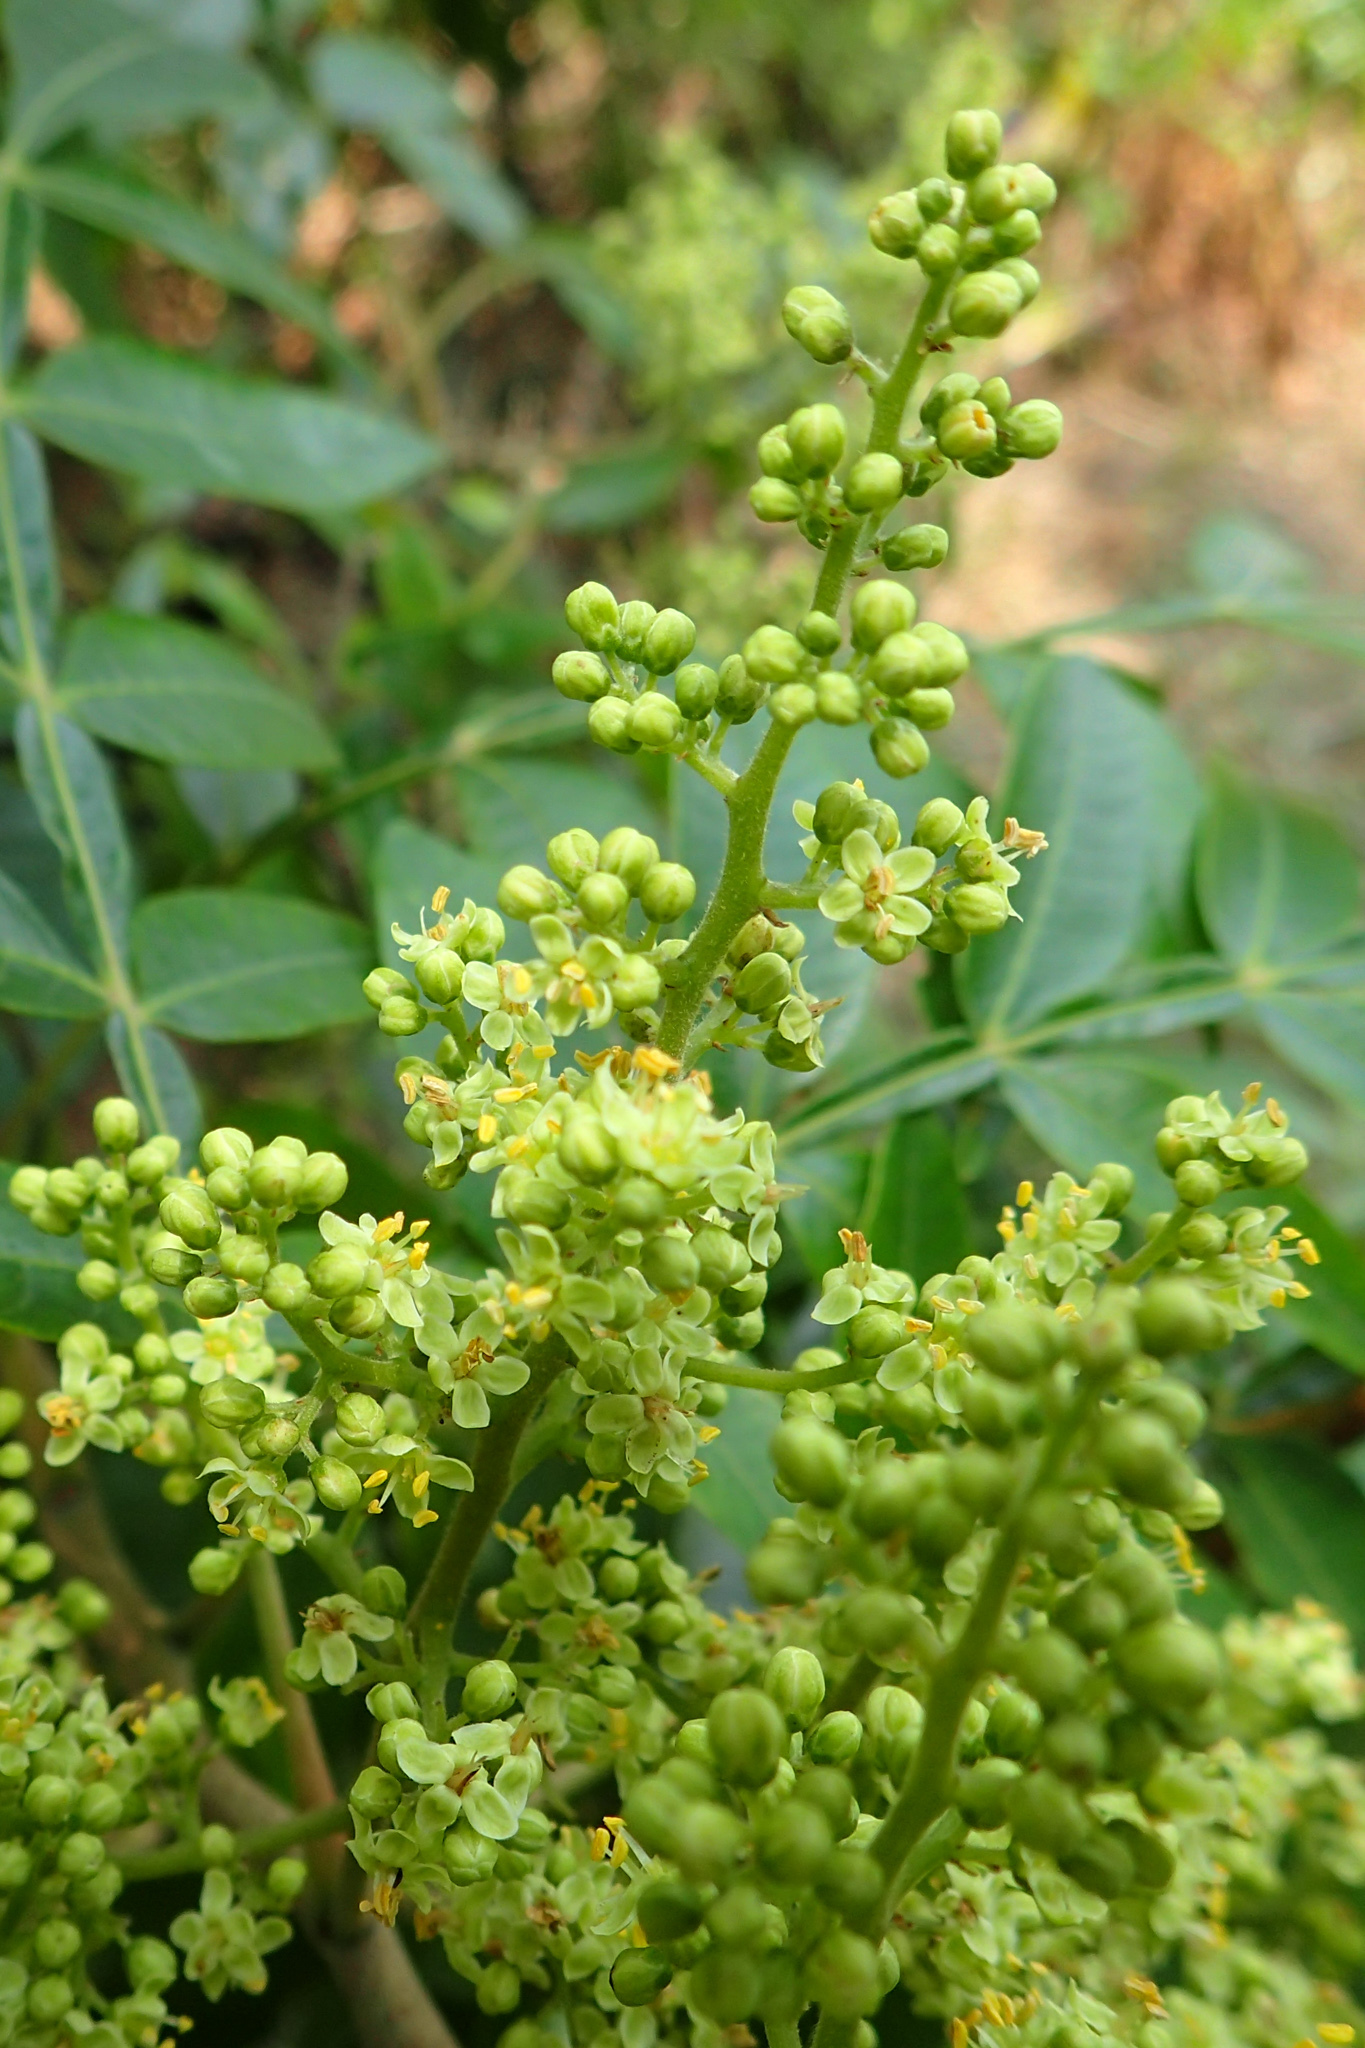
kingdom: Plantae
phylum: Tracheophyta
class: Magnoliopsida
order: Sapindales
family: Anacardiaceae
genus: Rhus
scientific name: Rhus copallina
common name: Shining sumac
